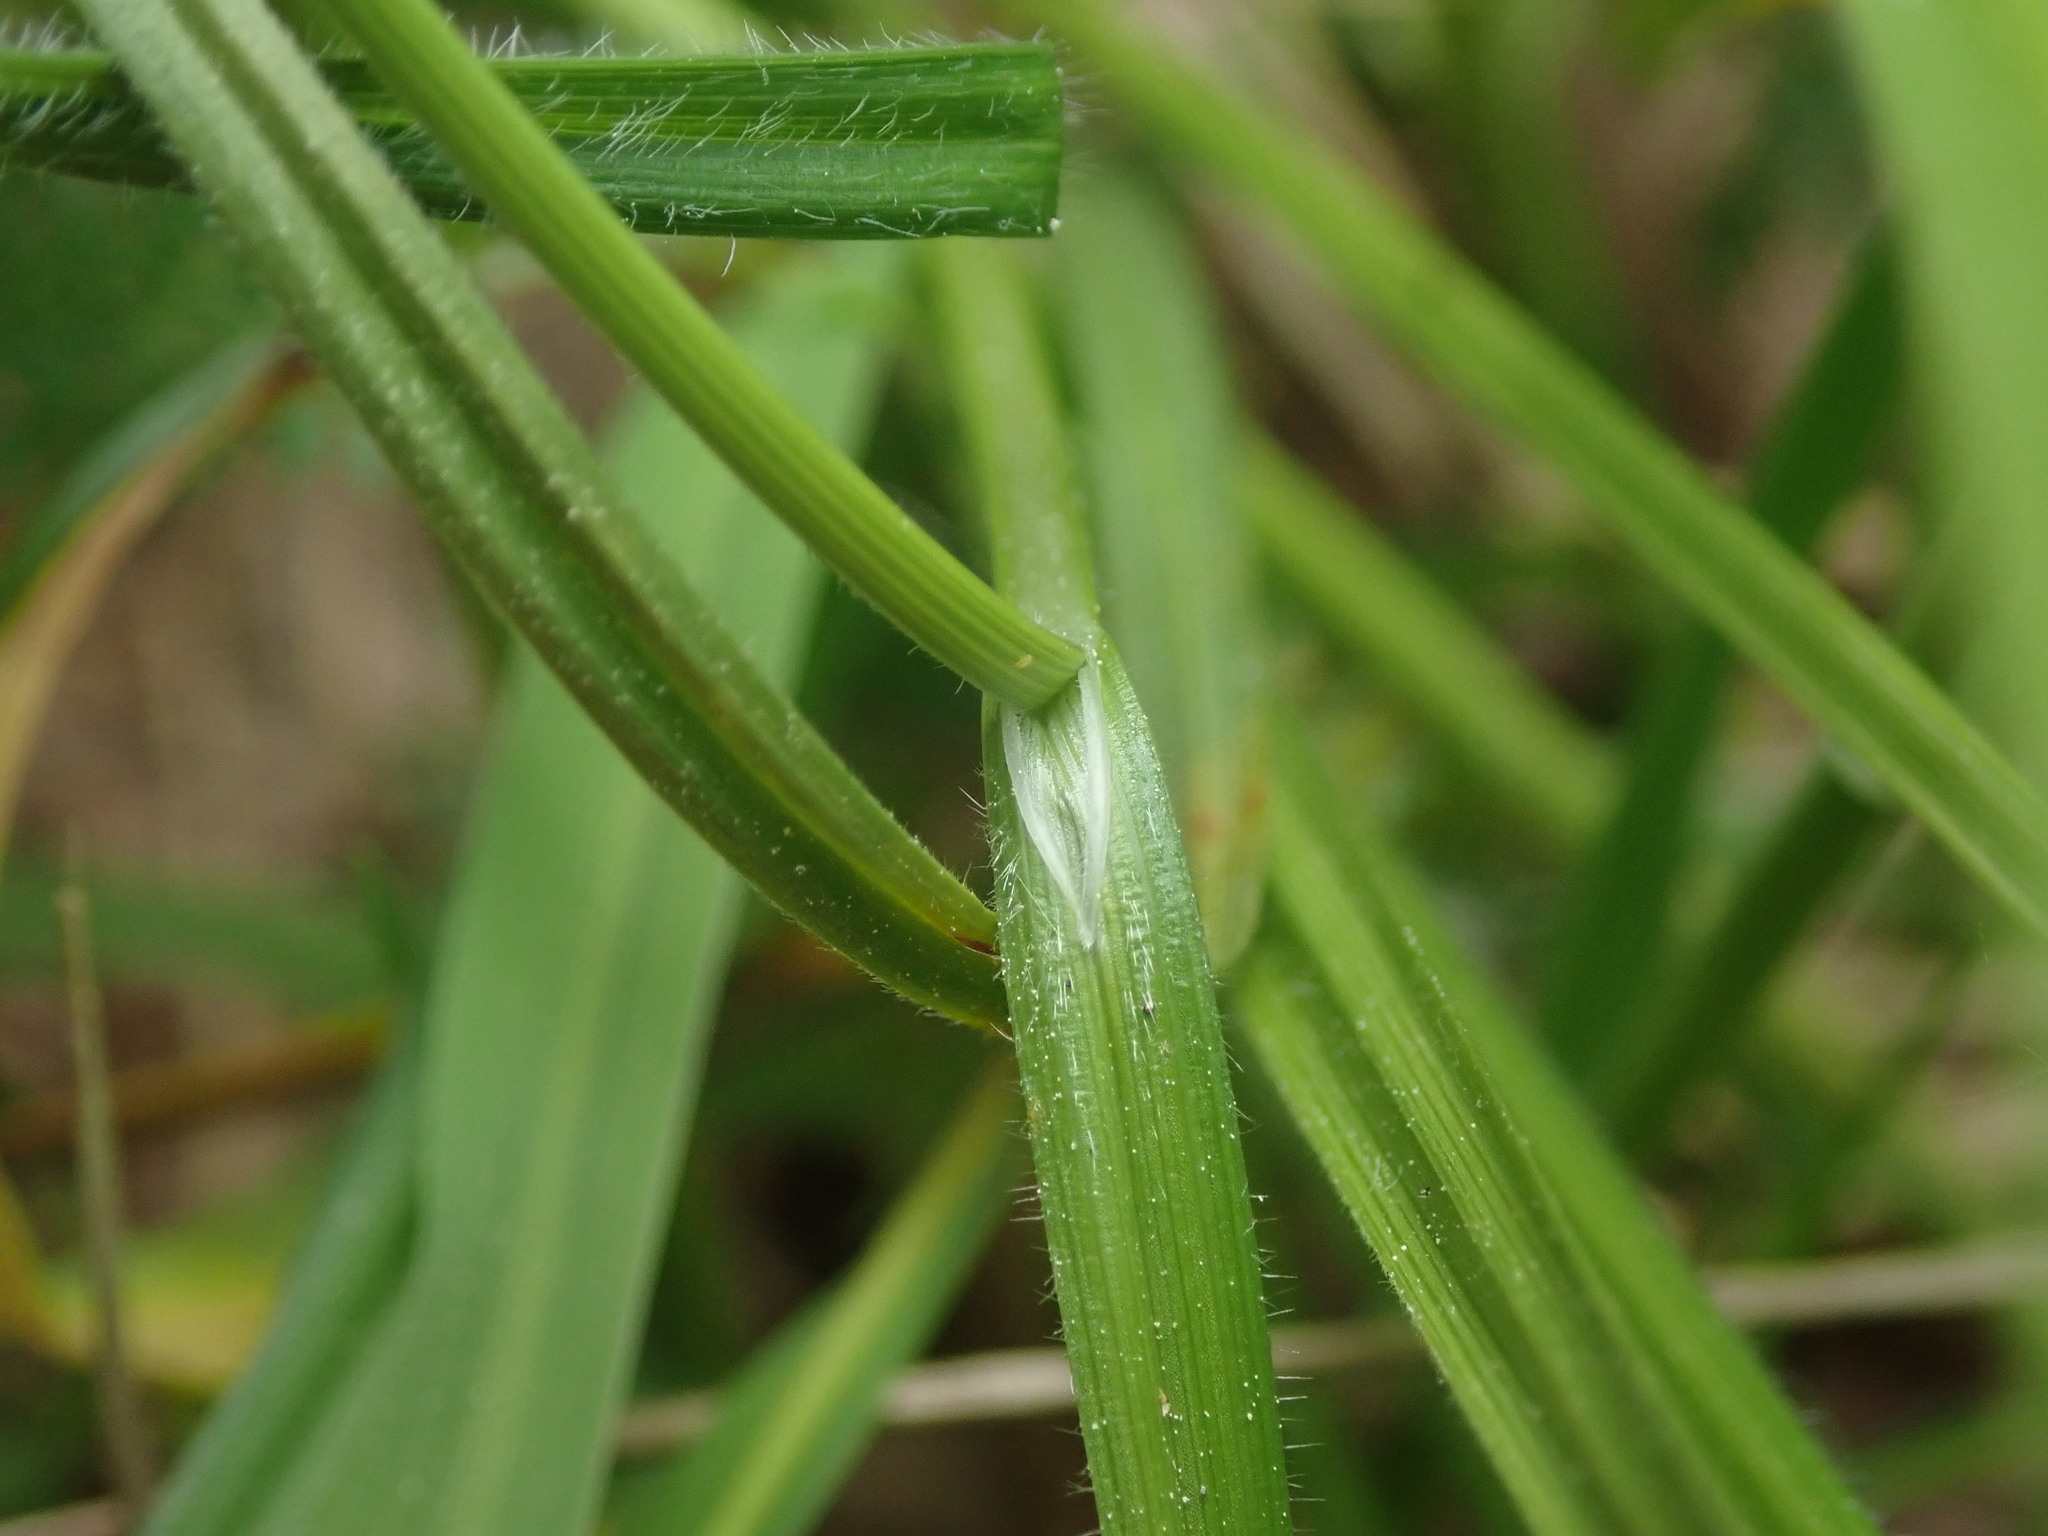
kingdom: Plantae
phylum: Tracheophyta
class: Liliopsida
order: Poales
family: Cyperaceae
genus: Carex
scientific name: Carex pallescens
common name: Pale sedge
